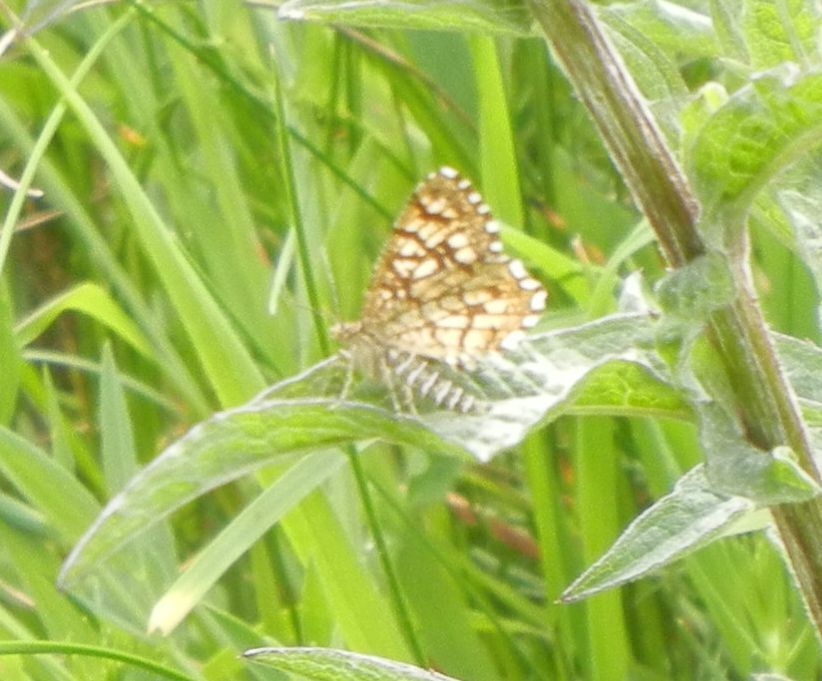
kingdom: Animalia
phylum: Arthropoda
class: Insecta
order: Lepidoptera
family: Geometridae
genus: Chiasmia
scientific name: Chiasmia clathrata
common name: Latticed heath
